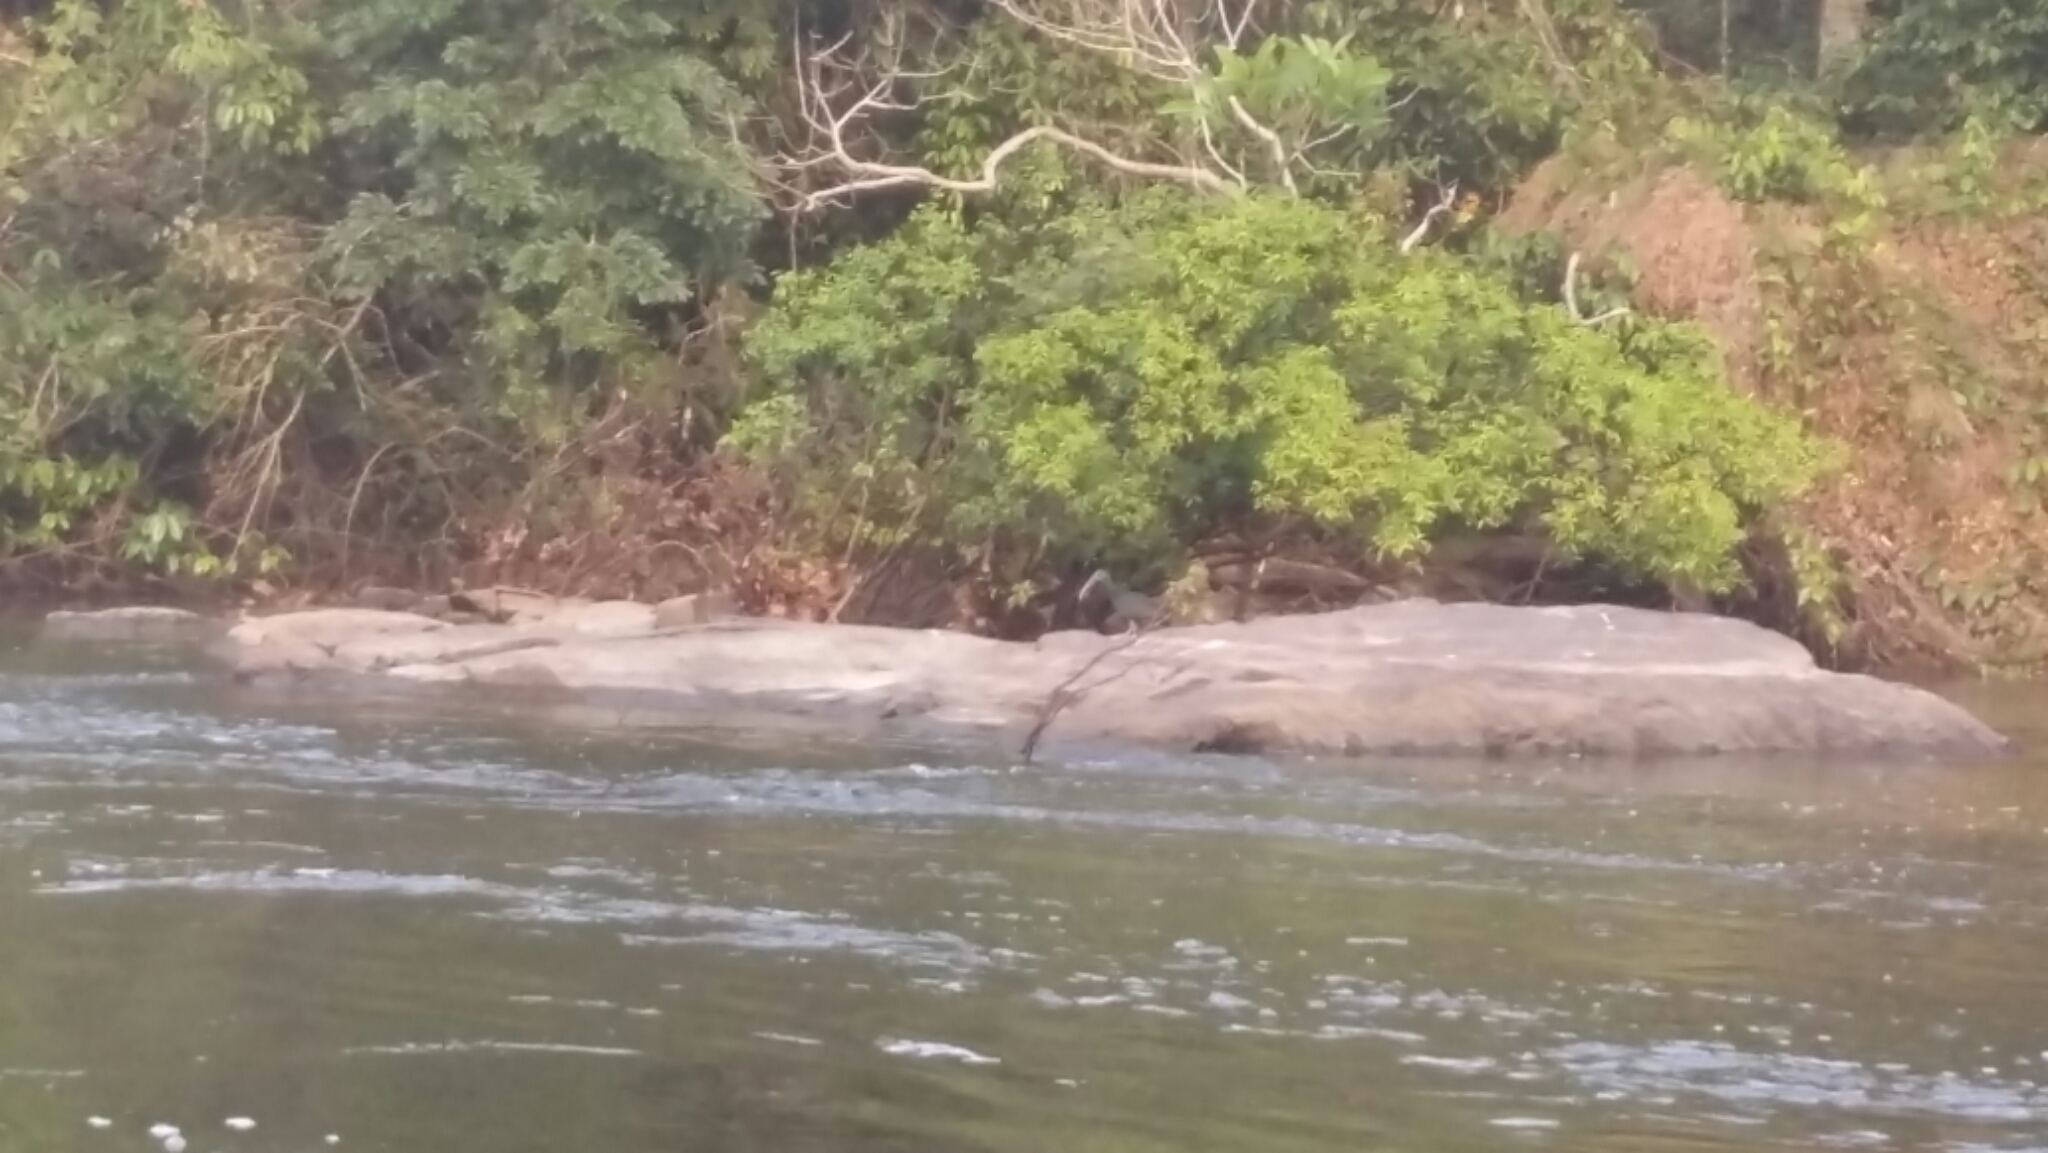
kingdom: Animalia
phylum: Chordata
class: Aves
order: Pelecaniformes
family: Threskiornithidae
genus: Mesembrinibis
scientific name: Mesembrinibis cayennensis
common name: Green ibis
